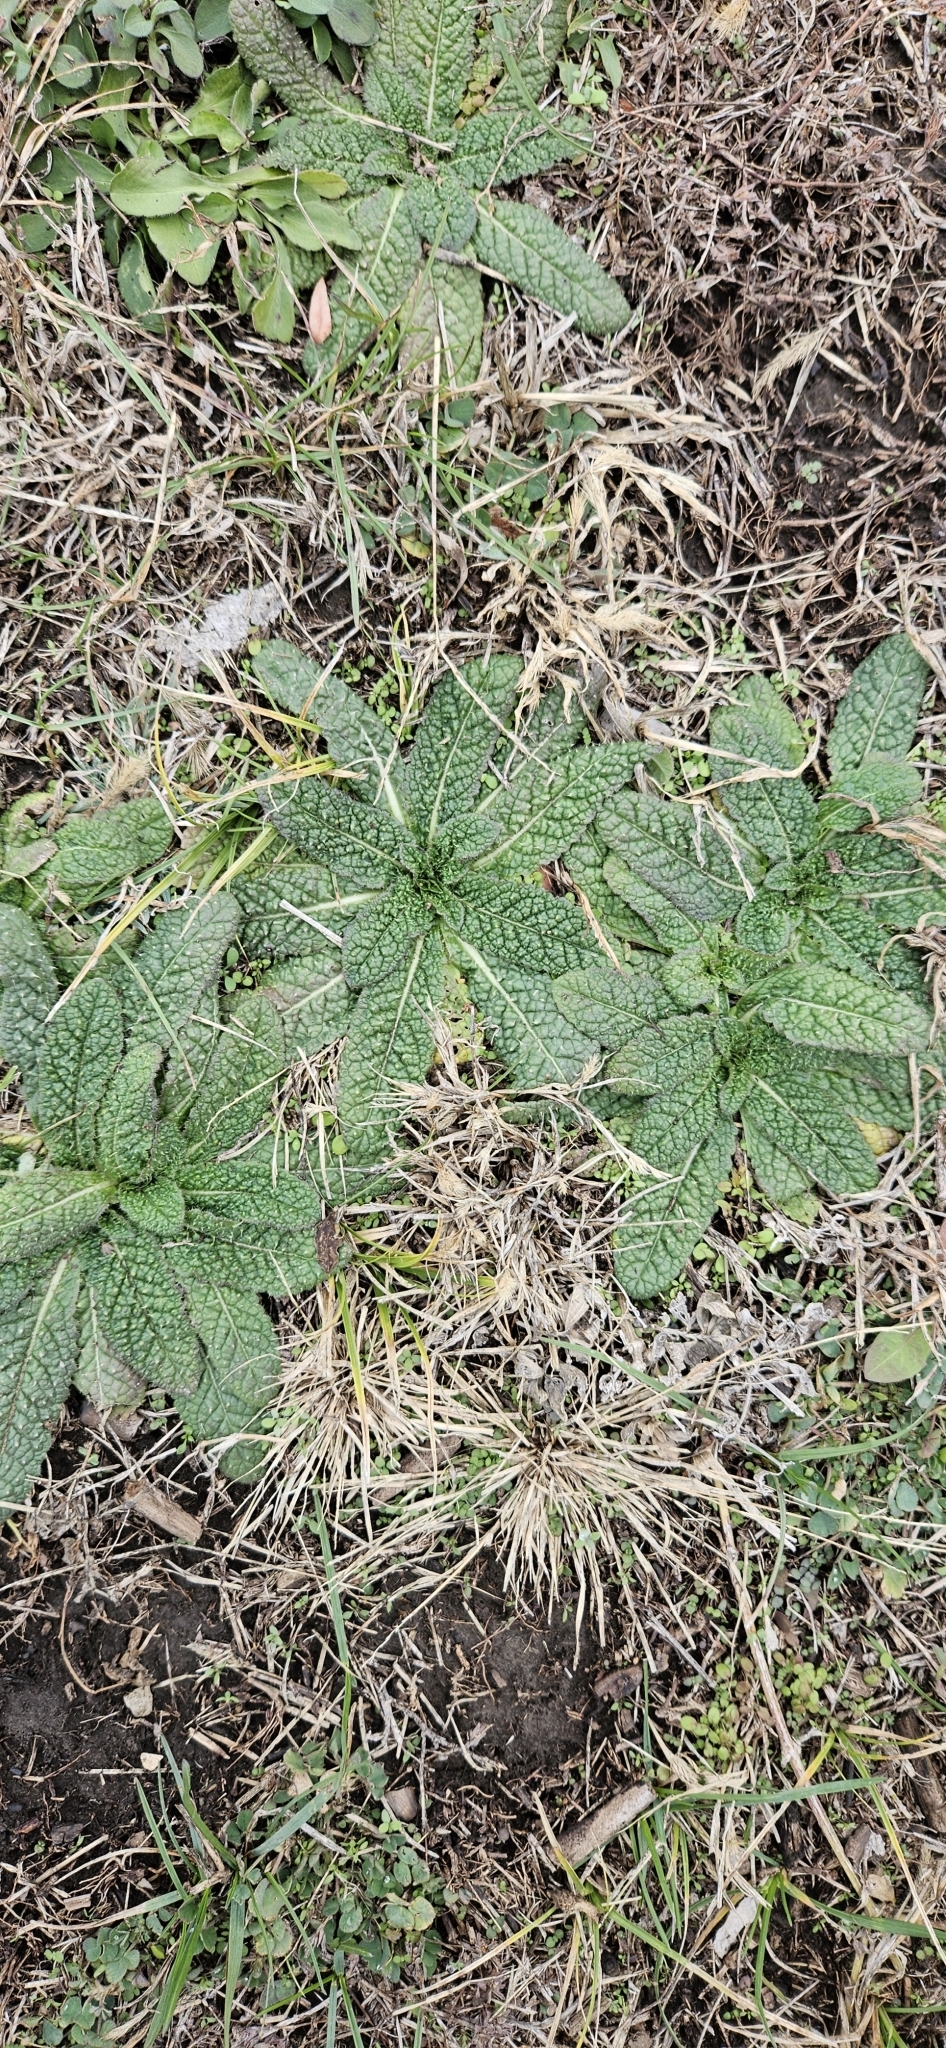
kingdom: Plantae
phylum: Tracheophyta
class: Magnoliopsida
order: Dipsacales
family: Caprifoliaceae
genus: Dipsacus
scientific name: Dipsacus fullonum
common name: Teasel
